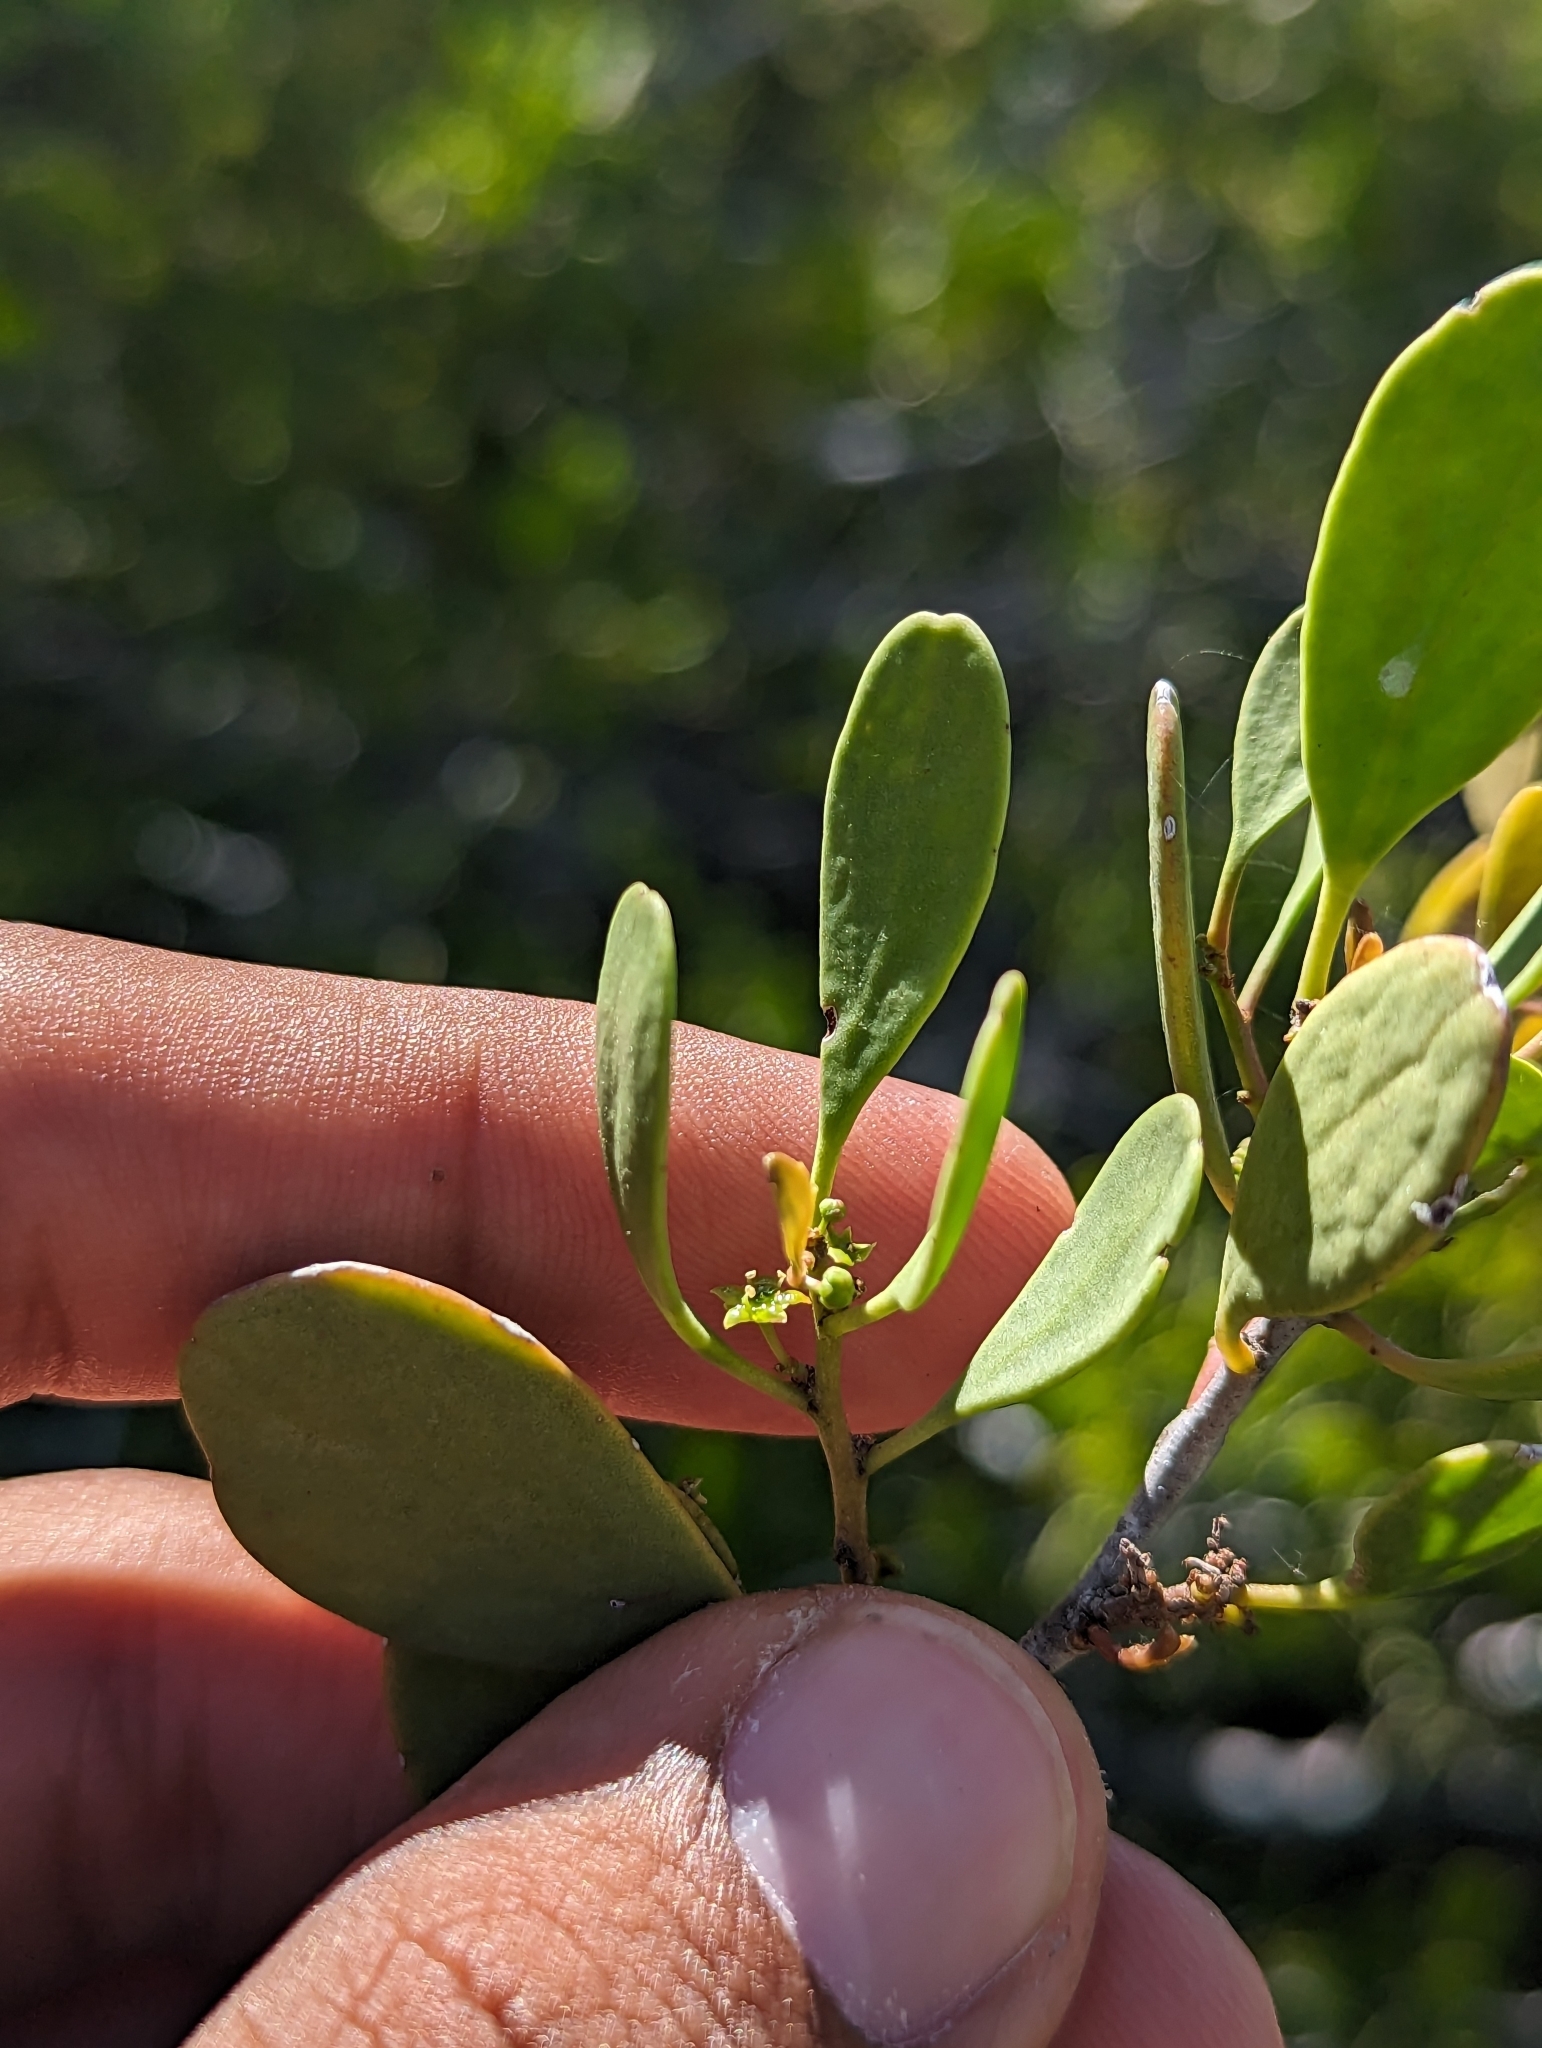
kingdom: Plantae
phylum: Tracheophyta
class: Magnoliopsida
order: Celastrales
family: Celastraceae
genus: Tricerma
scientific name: Tricerma phyllanthoides
